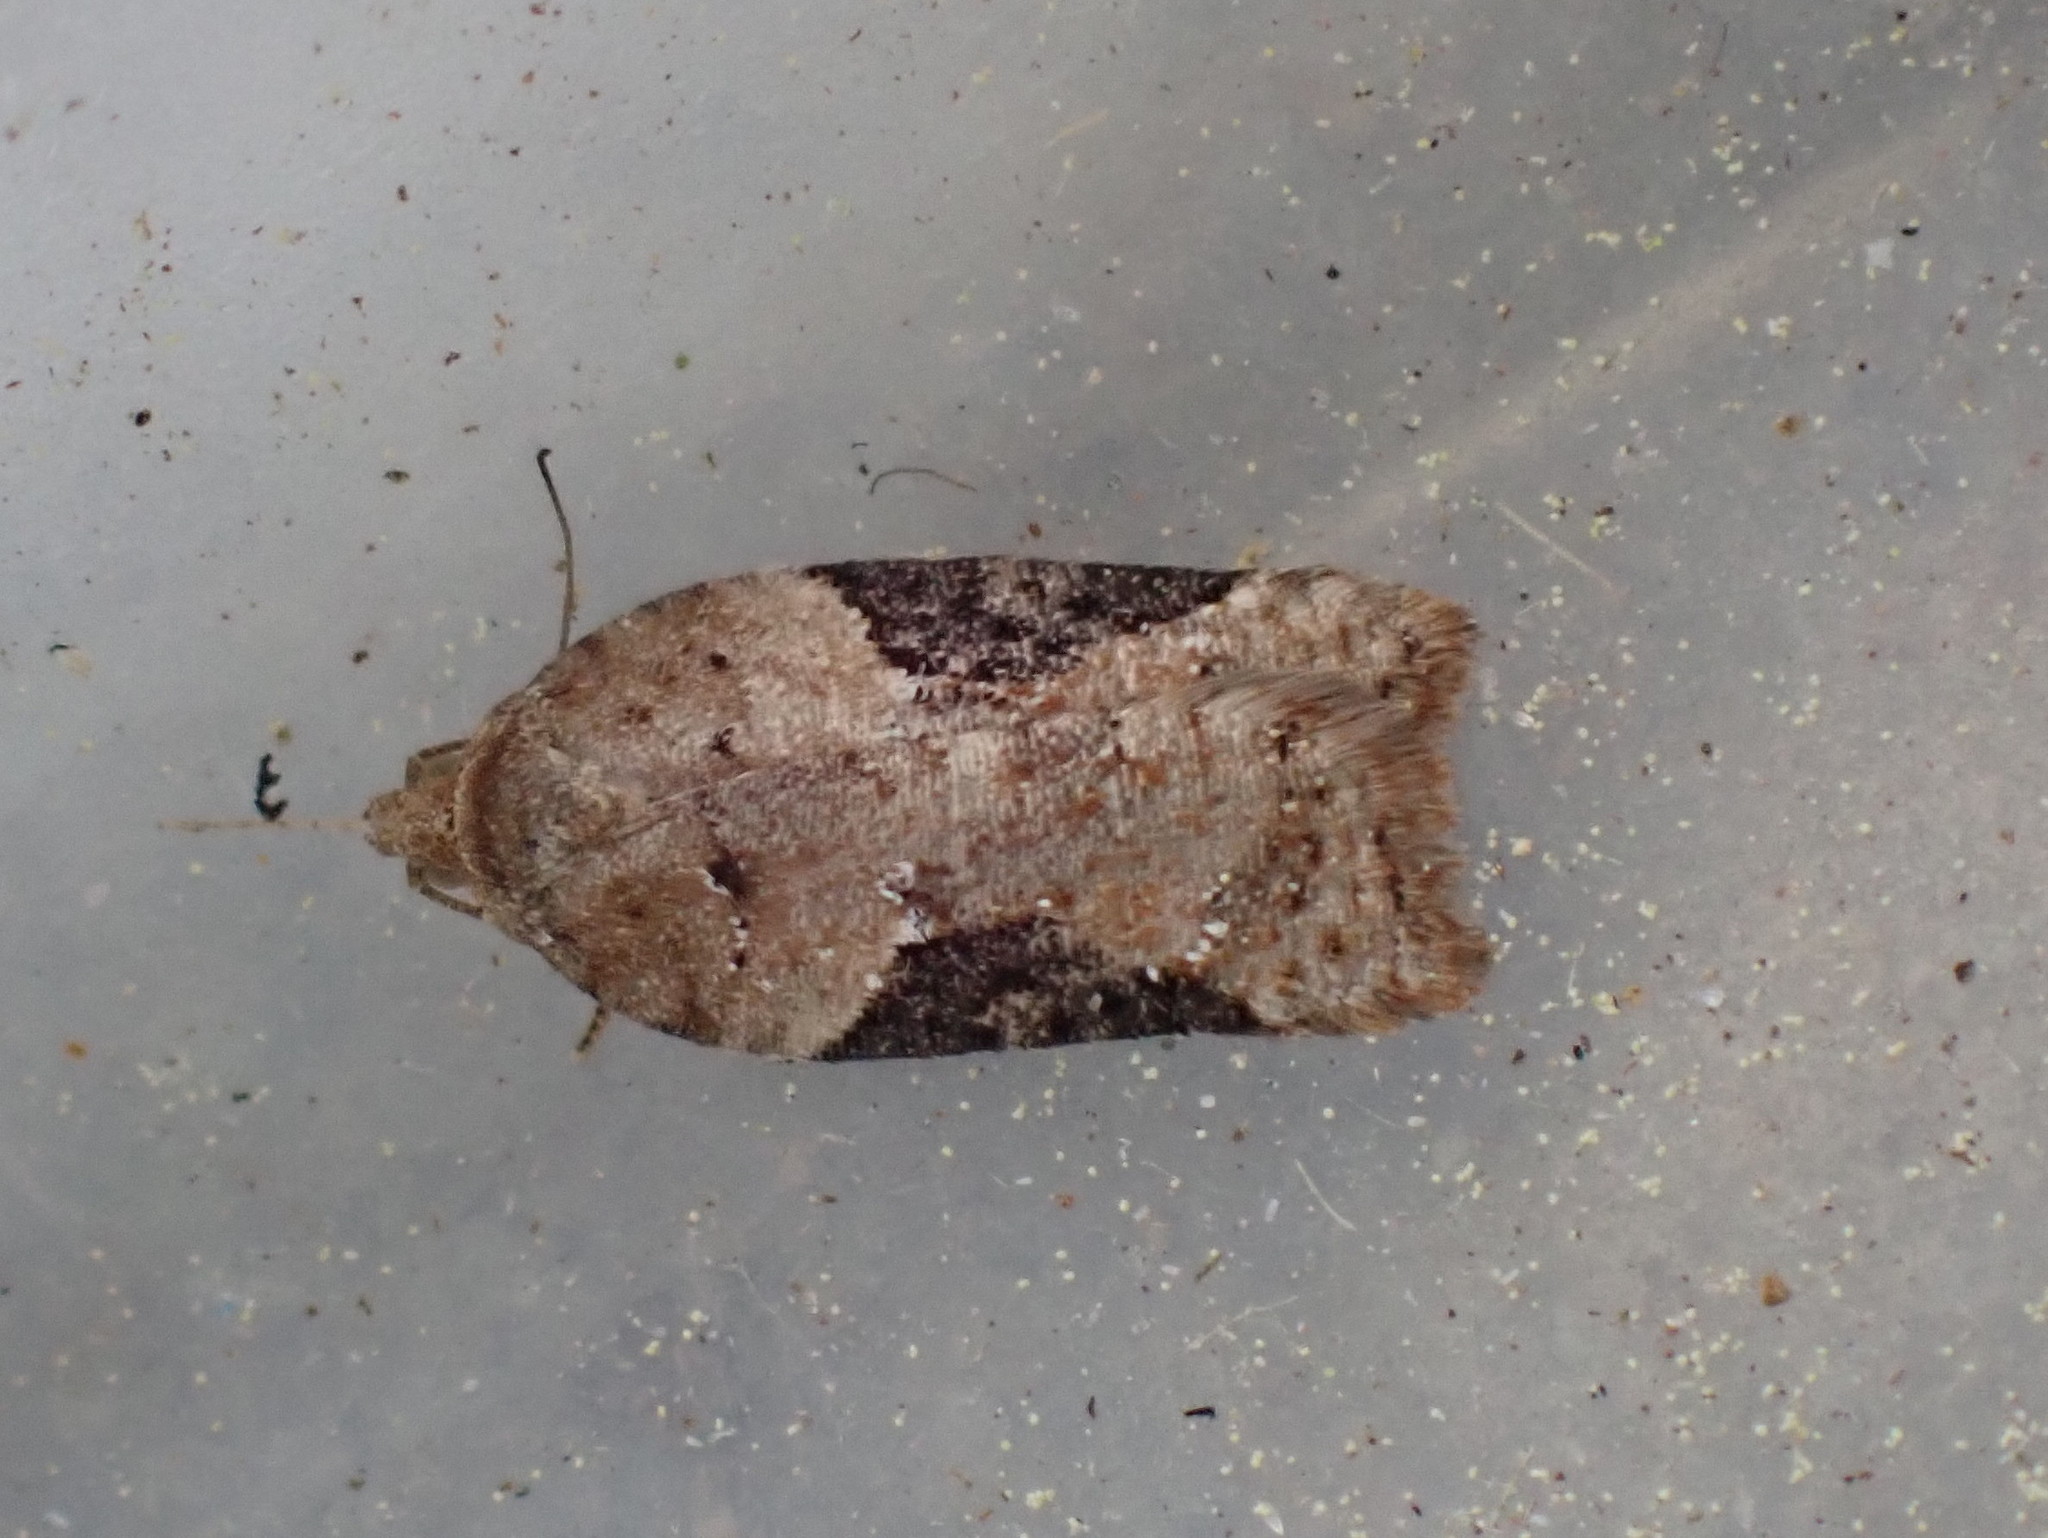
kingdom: Animalia
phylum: Arthropoda
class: Insecta
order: Lepidoptera
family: Tortricidae
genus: Acleris
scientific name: Acleris braunana
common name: Alder leafroller
